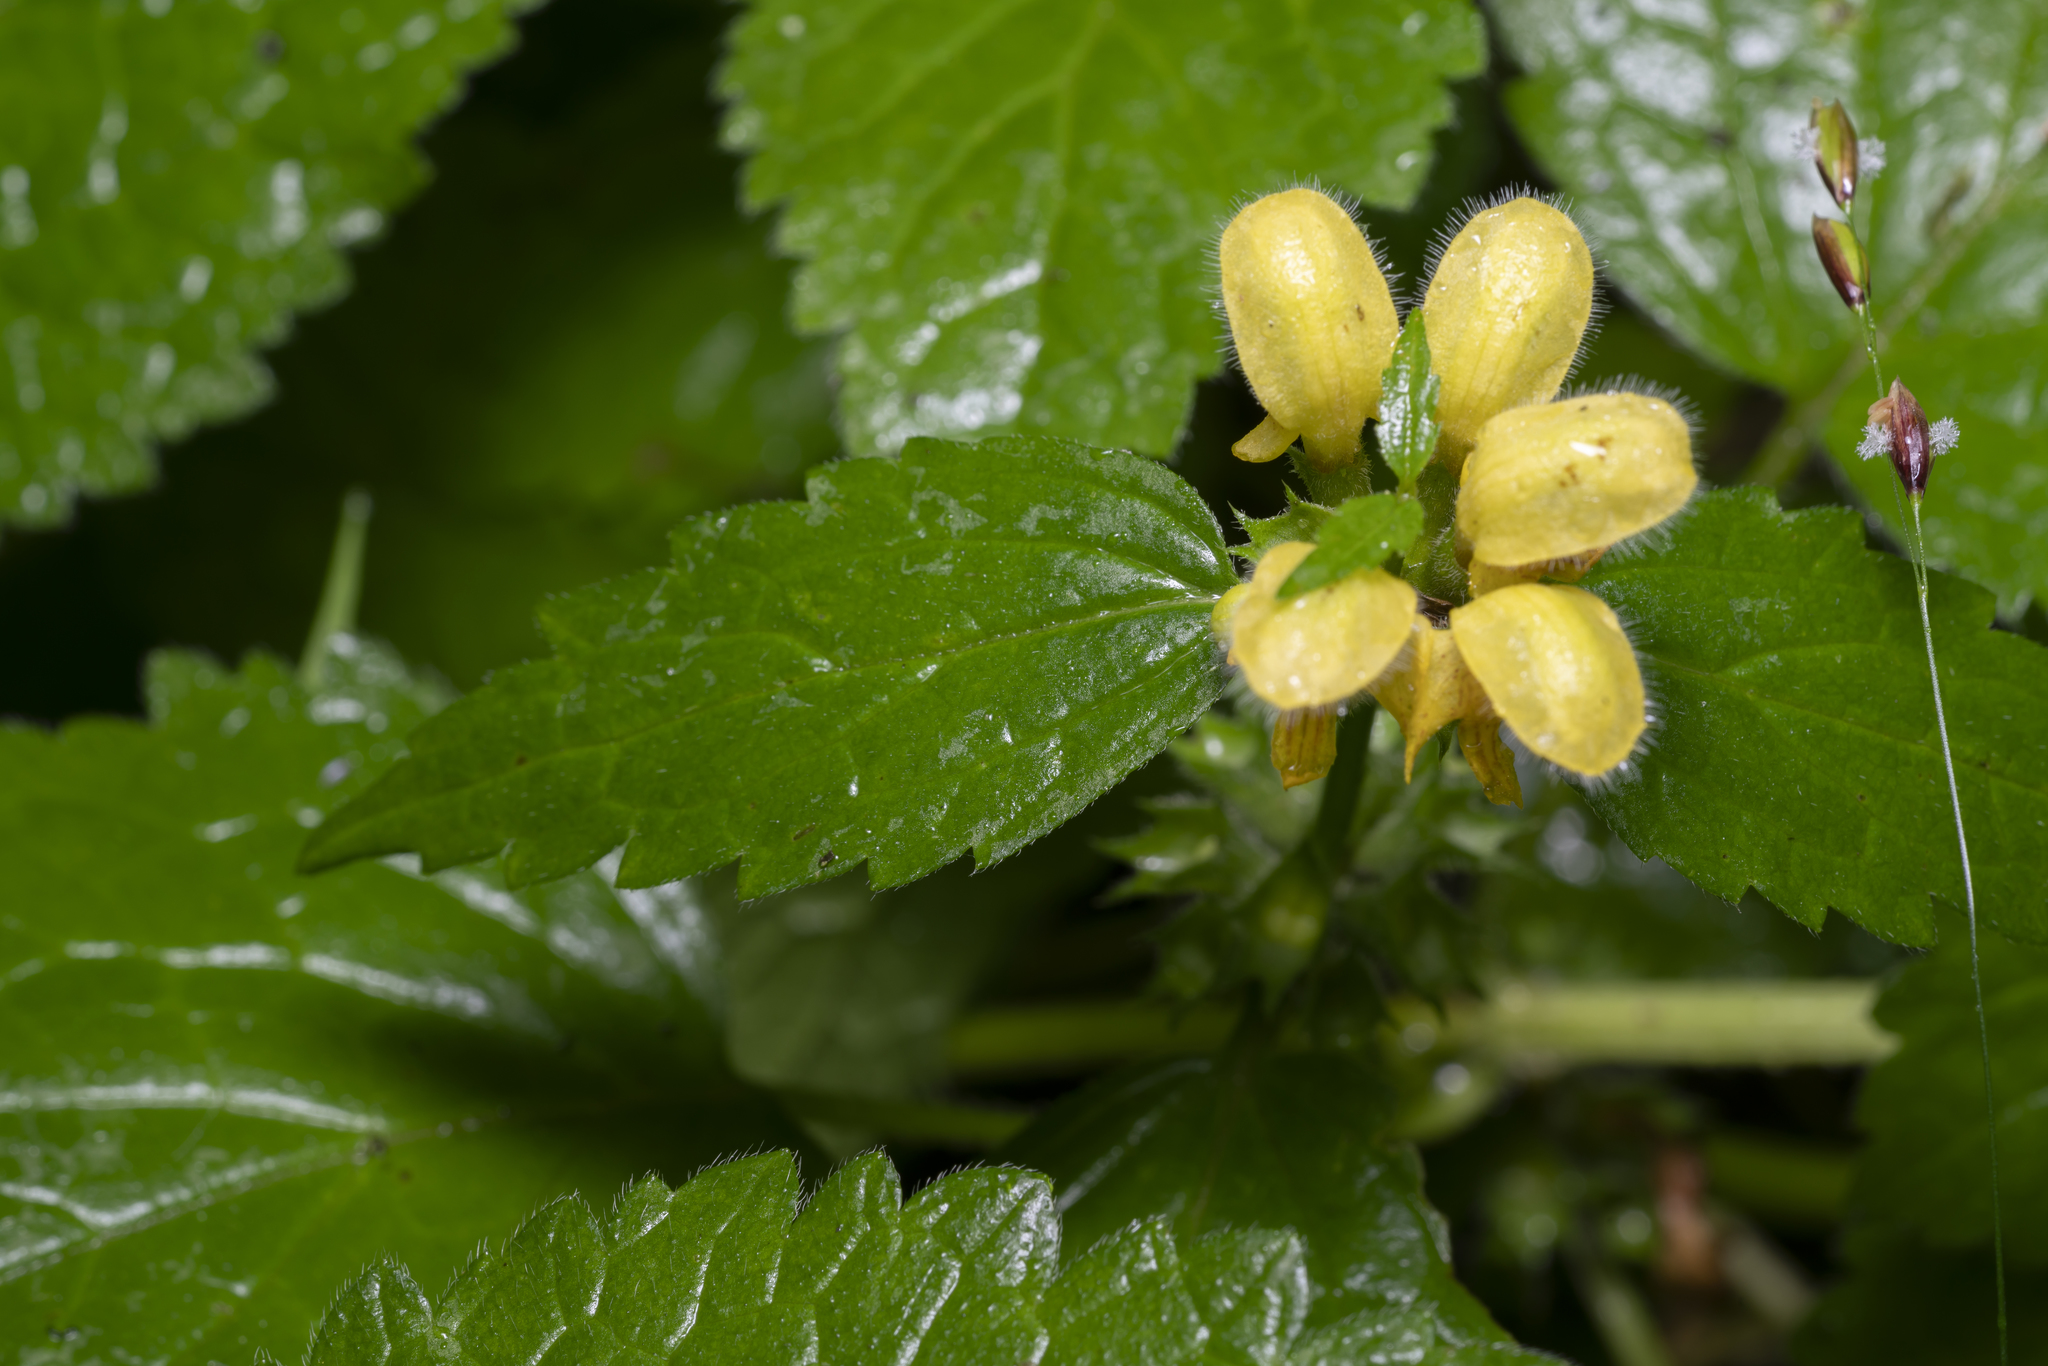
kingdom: Plantae
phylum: Tracheophyta
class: Magnoliopsida
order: Lamiales
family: Lamiaceae
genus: Lamium
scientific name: Lamium galeobdolon
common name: Yellow archangel
